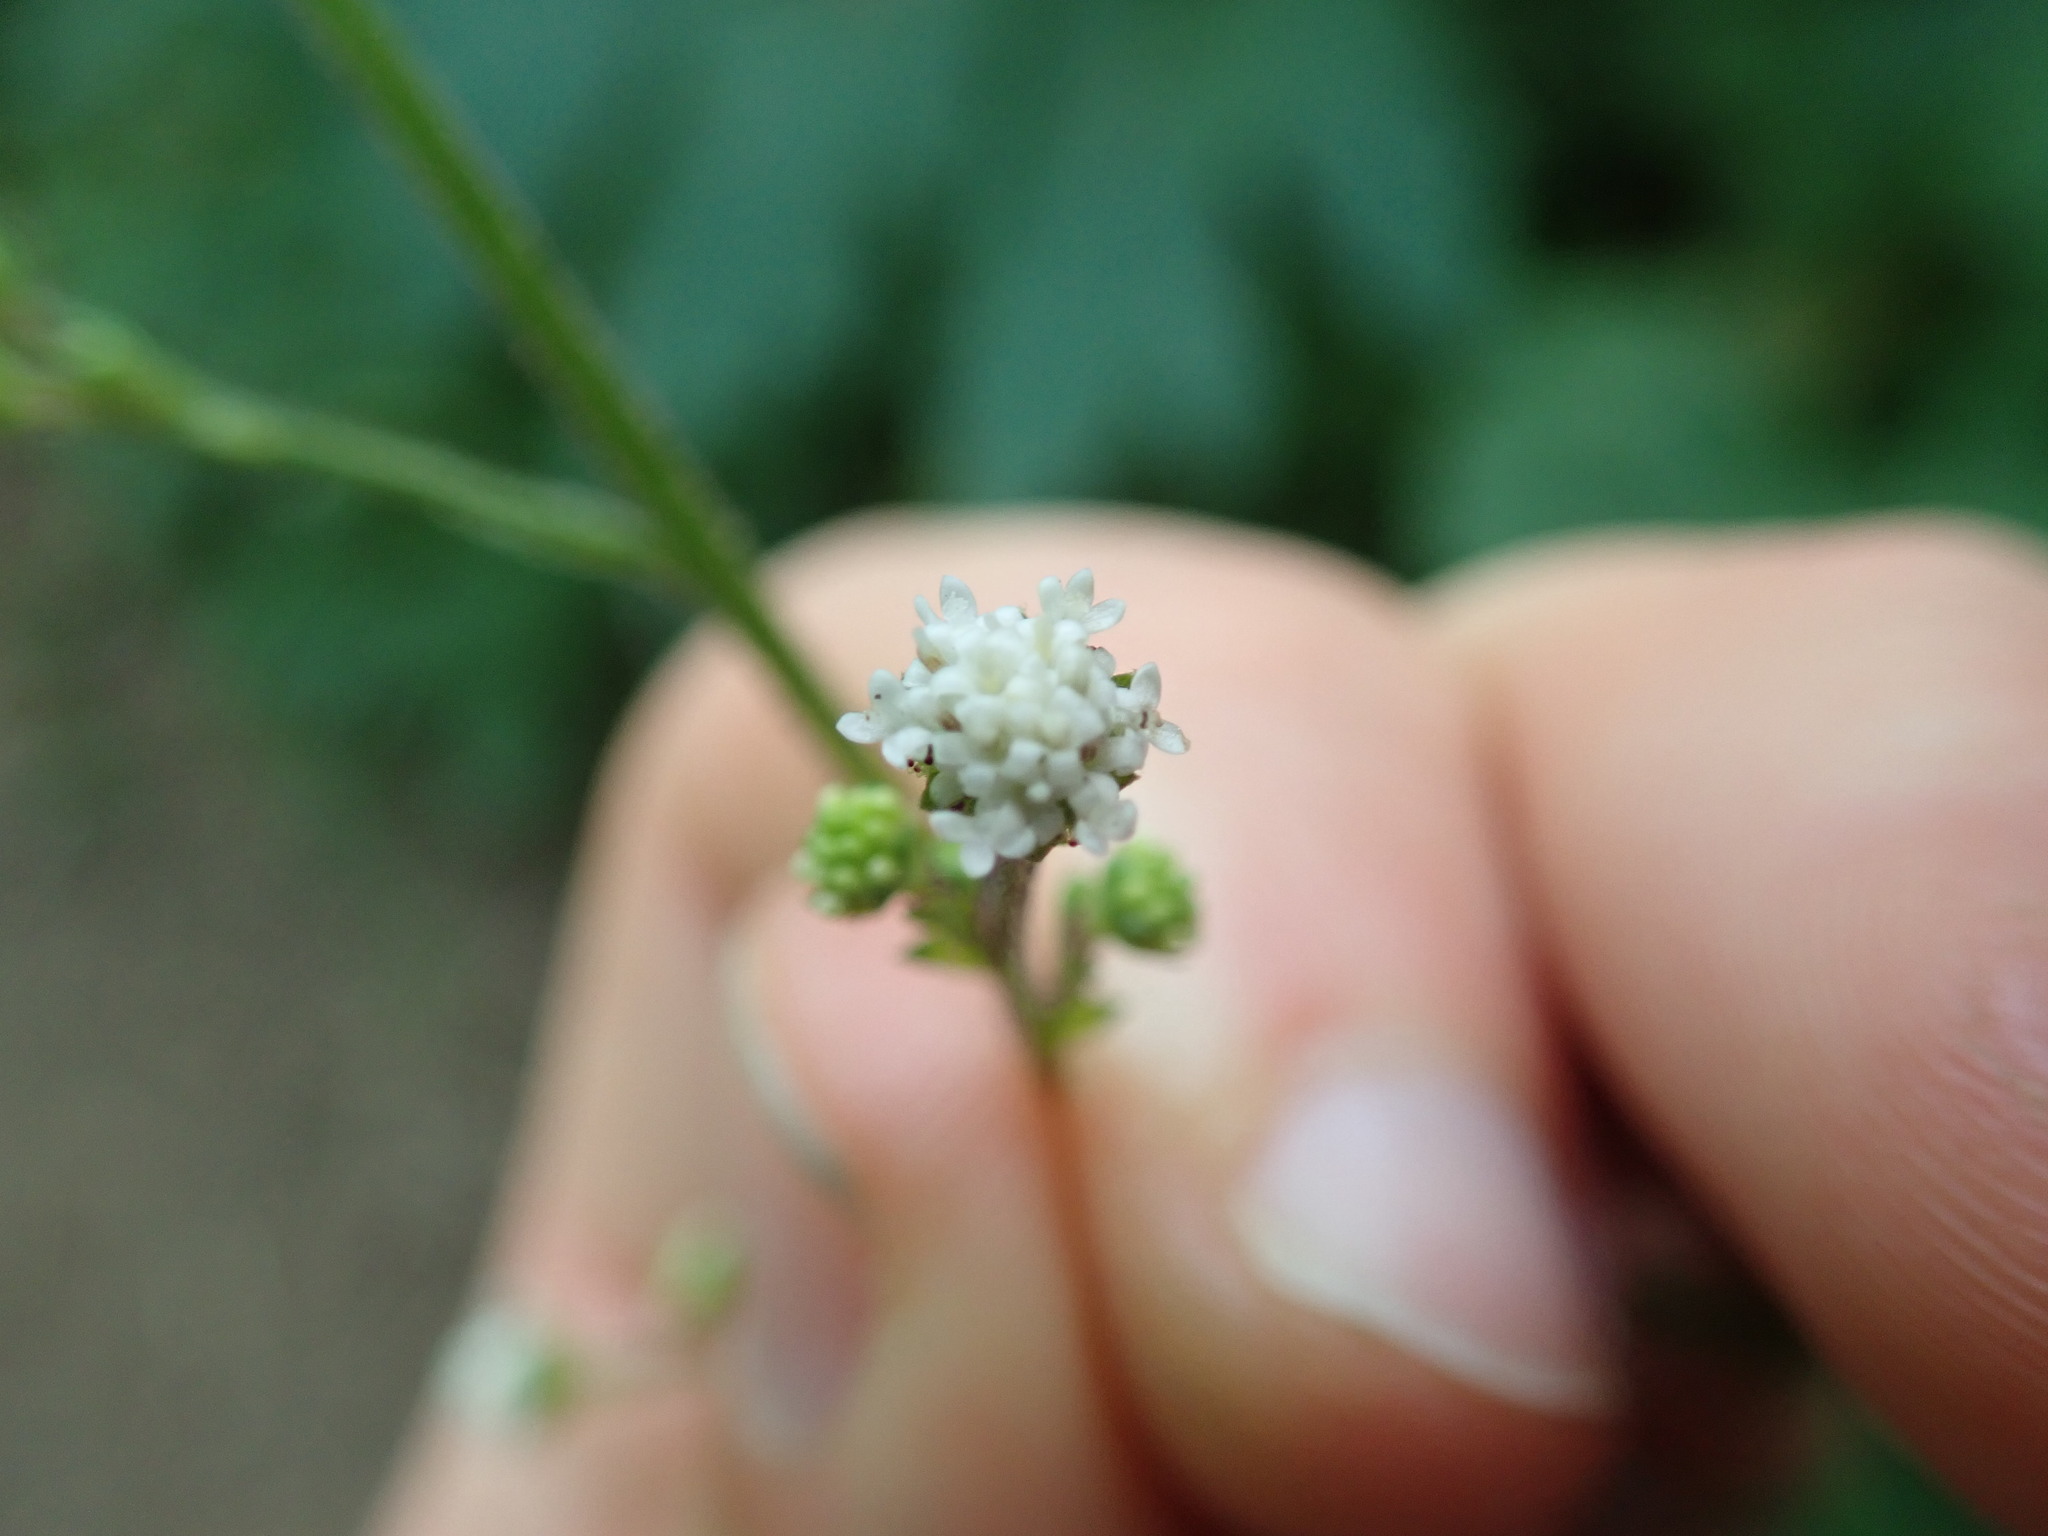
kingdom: Plantae
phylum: Tracheophyta
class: Magnoliopsida
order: Asterales
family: Asteraceae
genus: Adenocaulon
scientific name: Adenocaulon bicolor
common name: Trailplant
